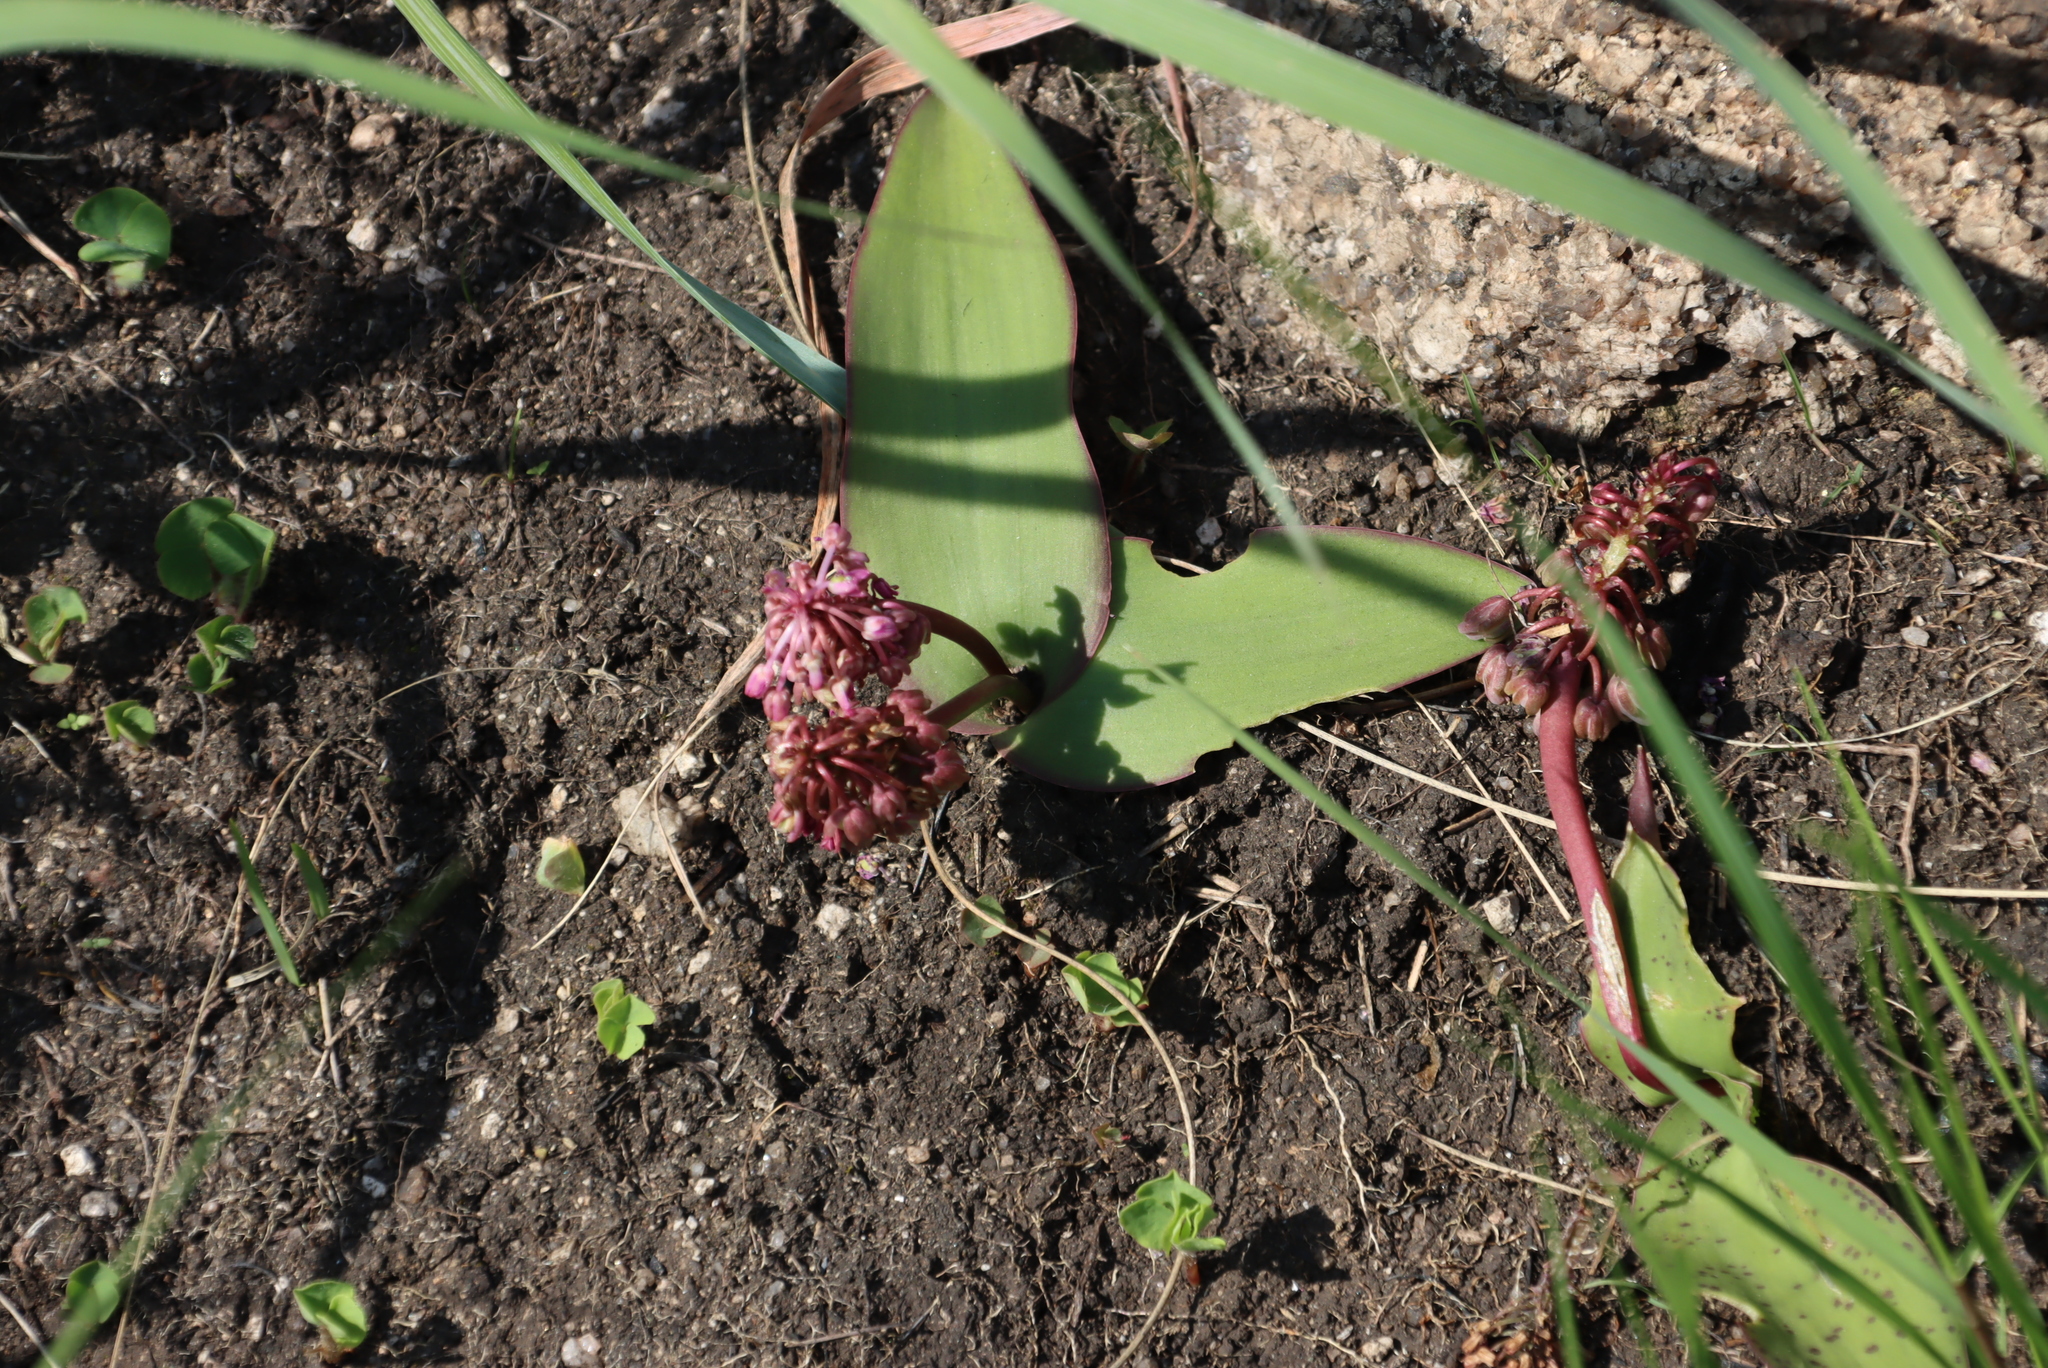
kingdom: Plantae
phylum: Tracheophyta
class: Liliopsida
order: Asparagales
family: Asparagaceae
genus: Ledebouria
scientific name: Ledebouria ovatifolia
